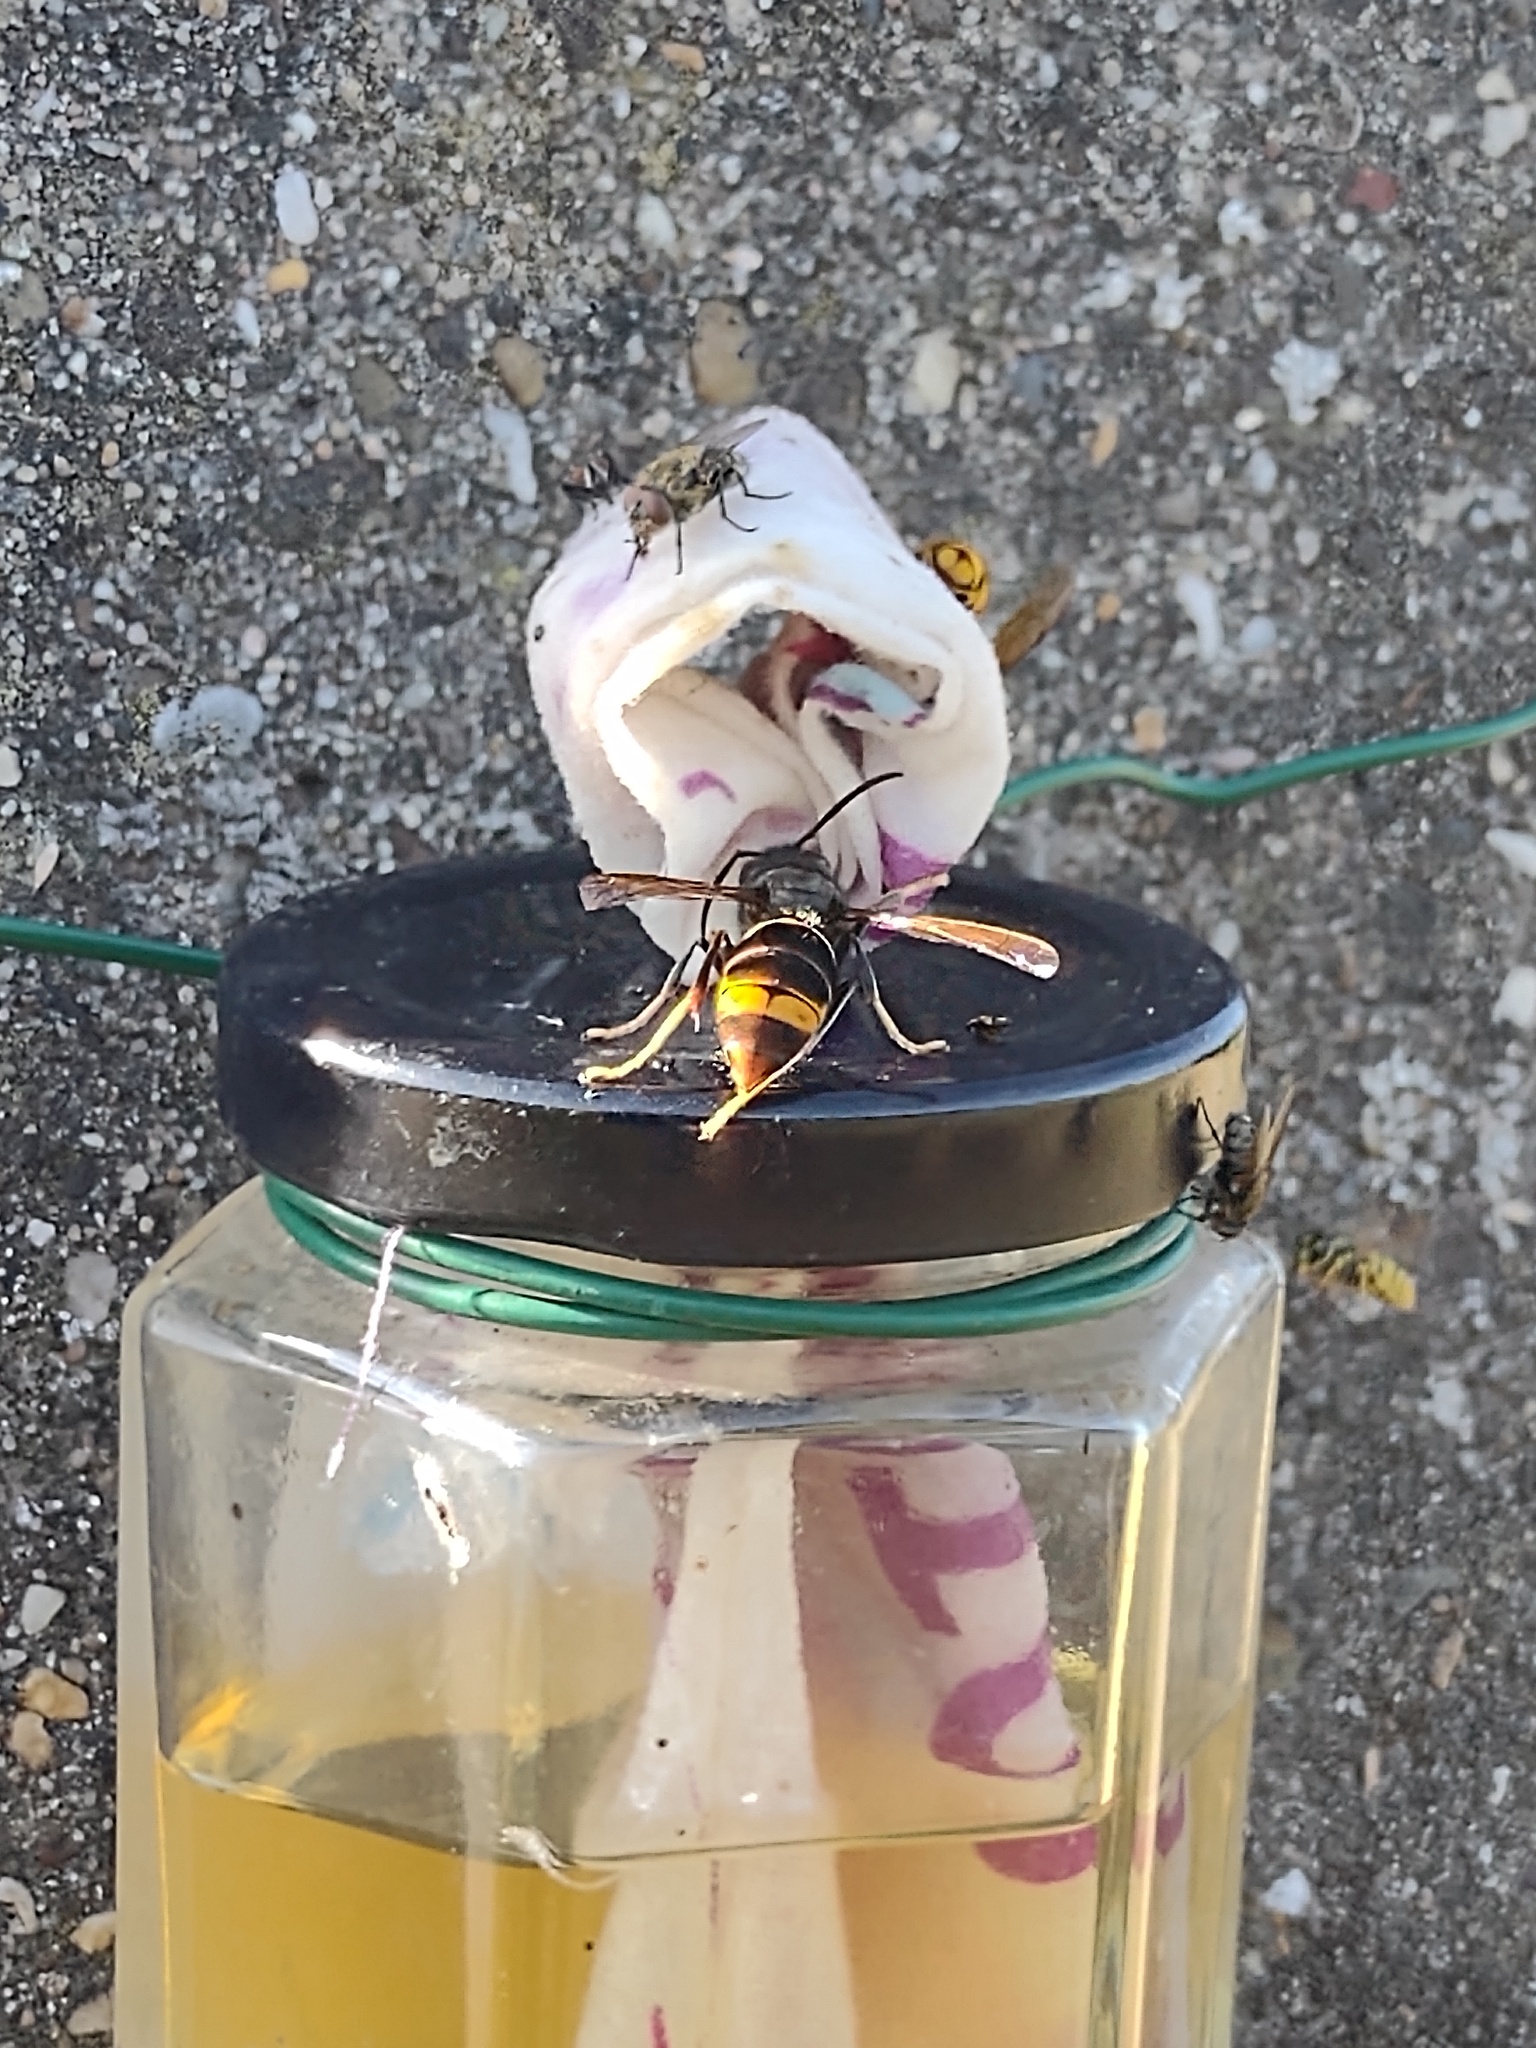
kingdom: Animalia
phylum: Arthropoda
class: Insecta
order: Hymenoptera
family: Vespidae
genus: Vespa
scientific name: Vespa velutina
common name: Asian hornet
